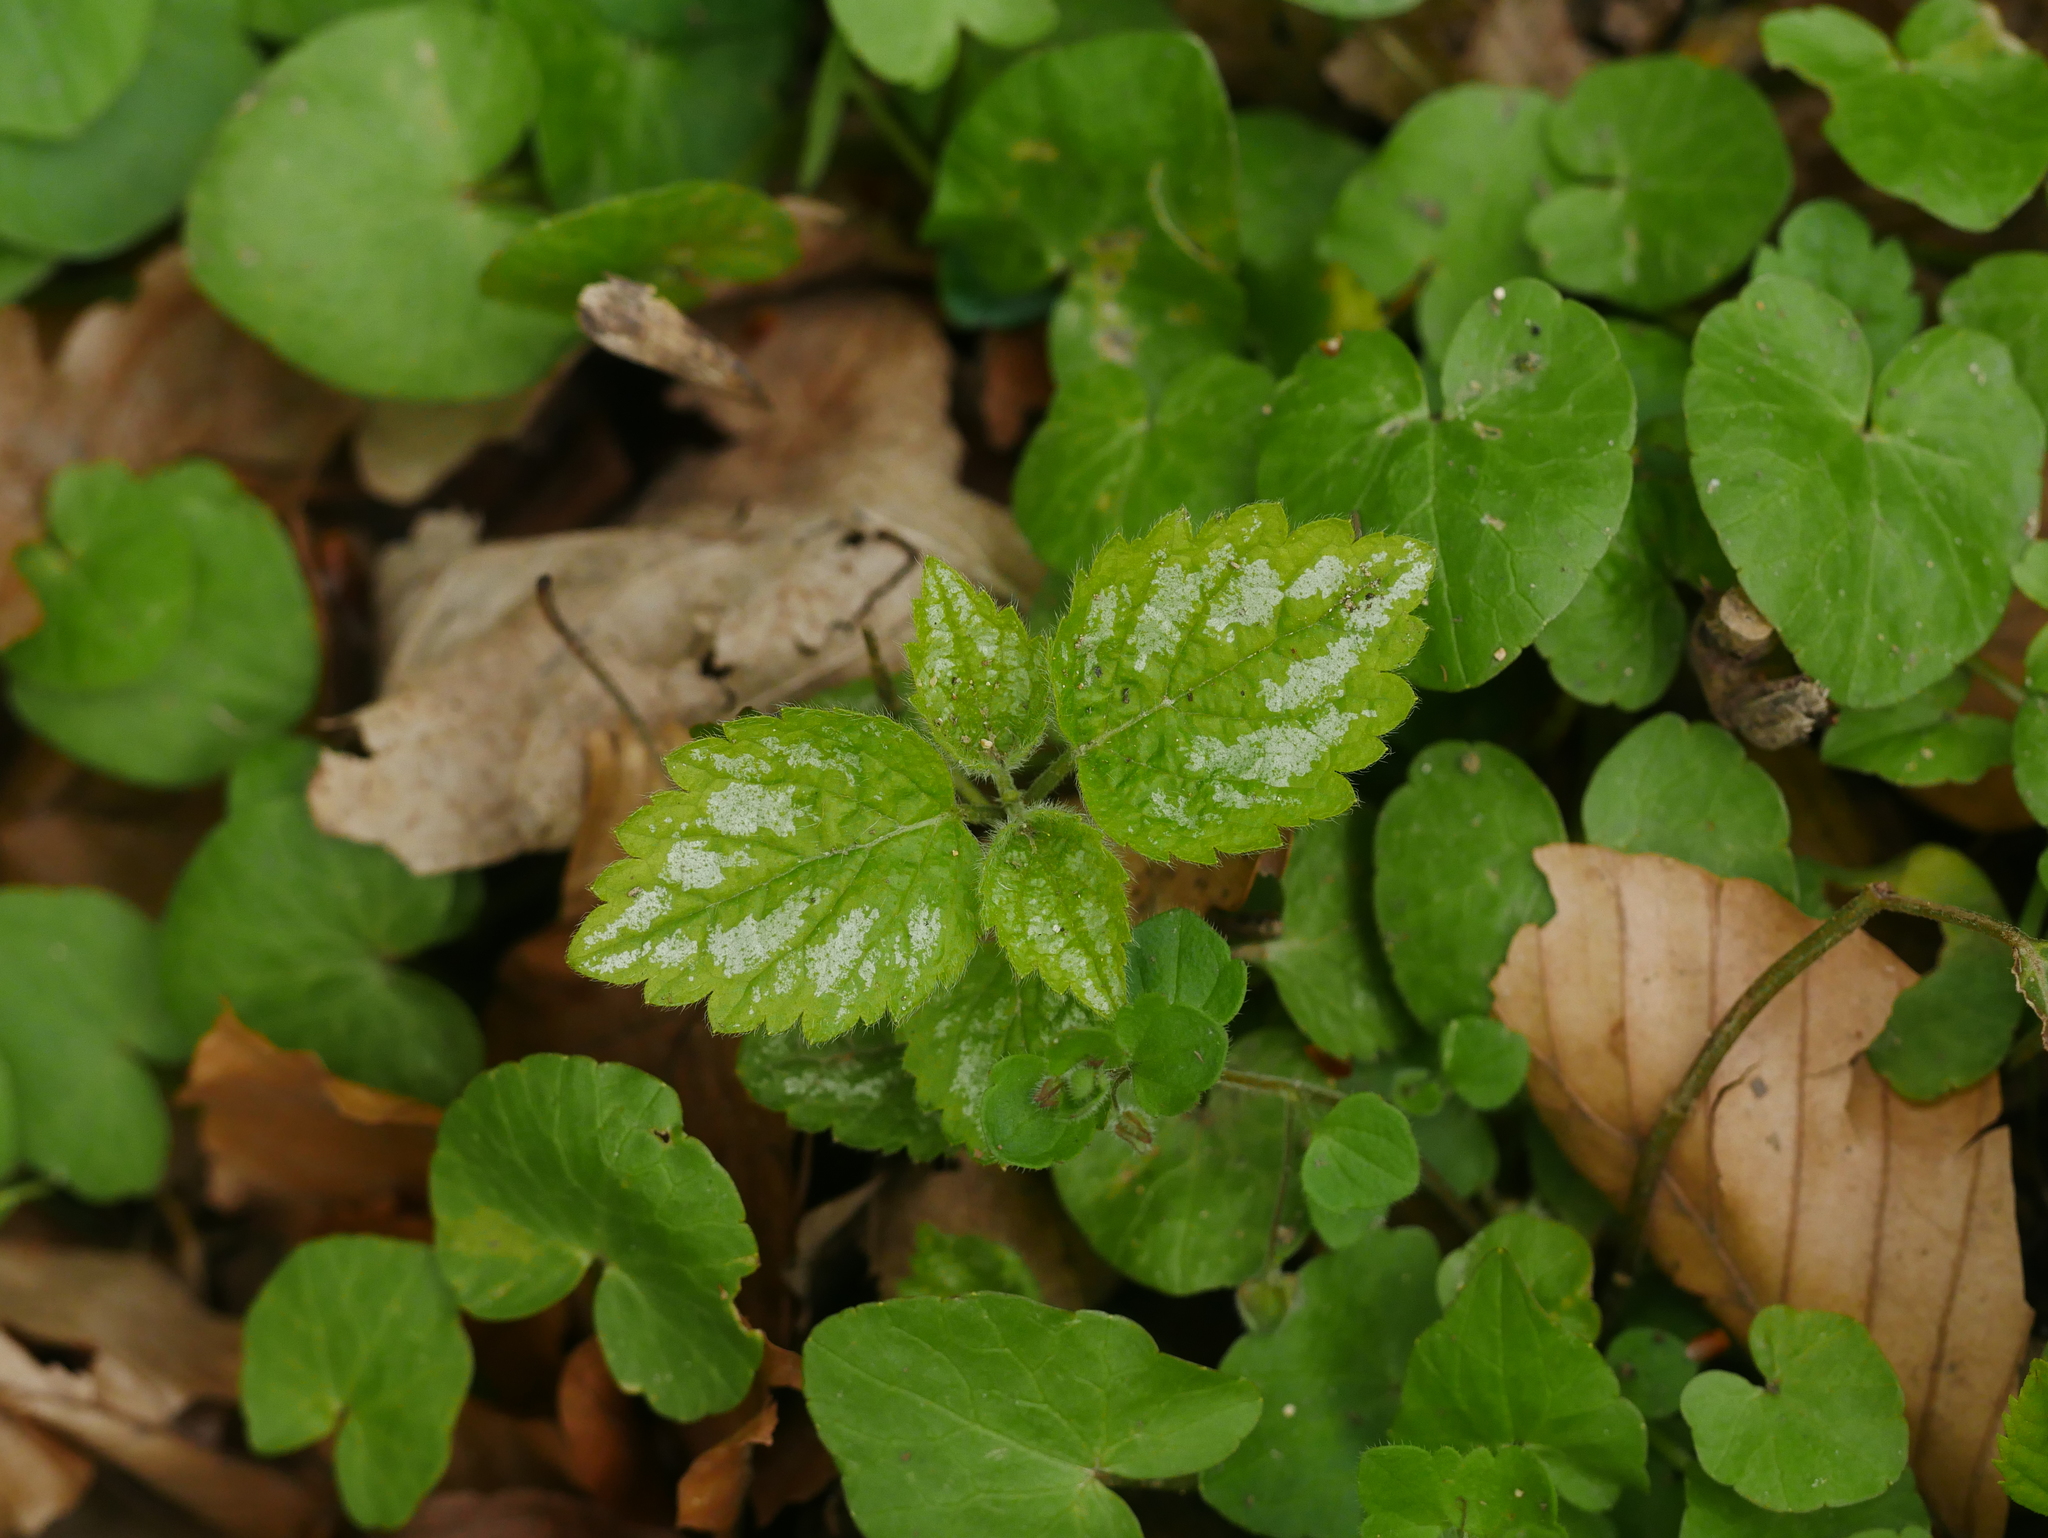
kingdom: Plantae
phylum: Tracheophyta
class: Magnoliopsida
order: Lamiales
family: Lamiaceae
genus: Lamium
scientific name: Lamium galeobdolon
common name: Yellow archangel
